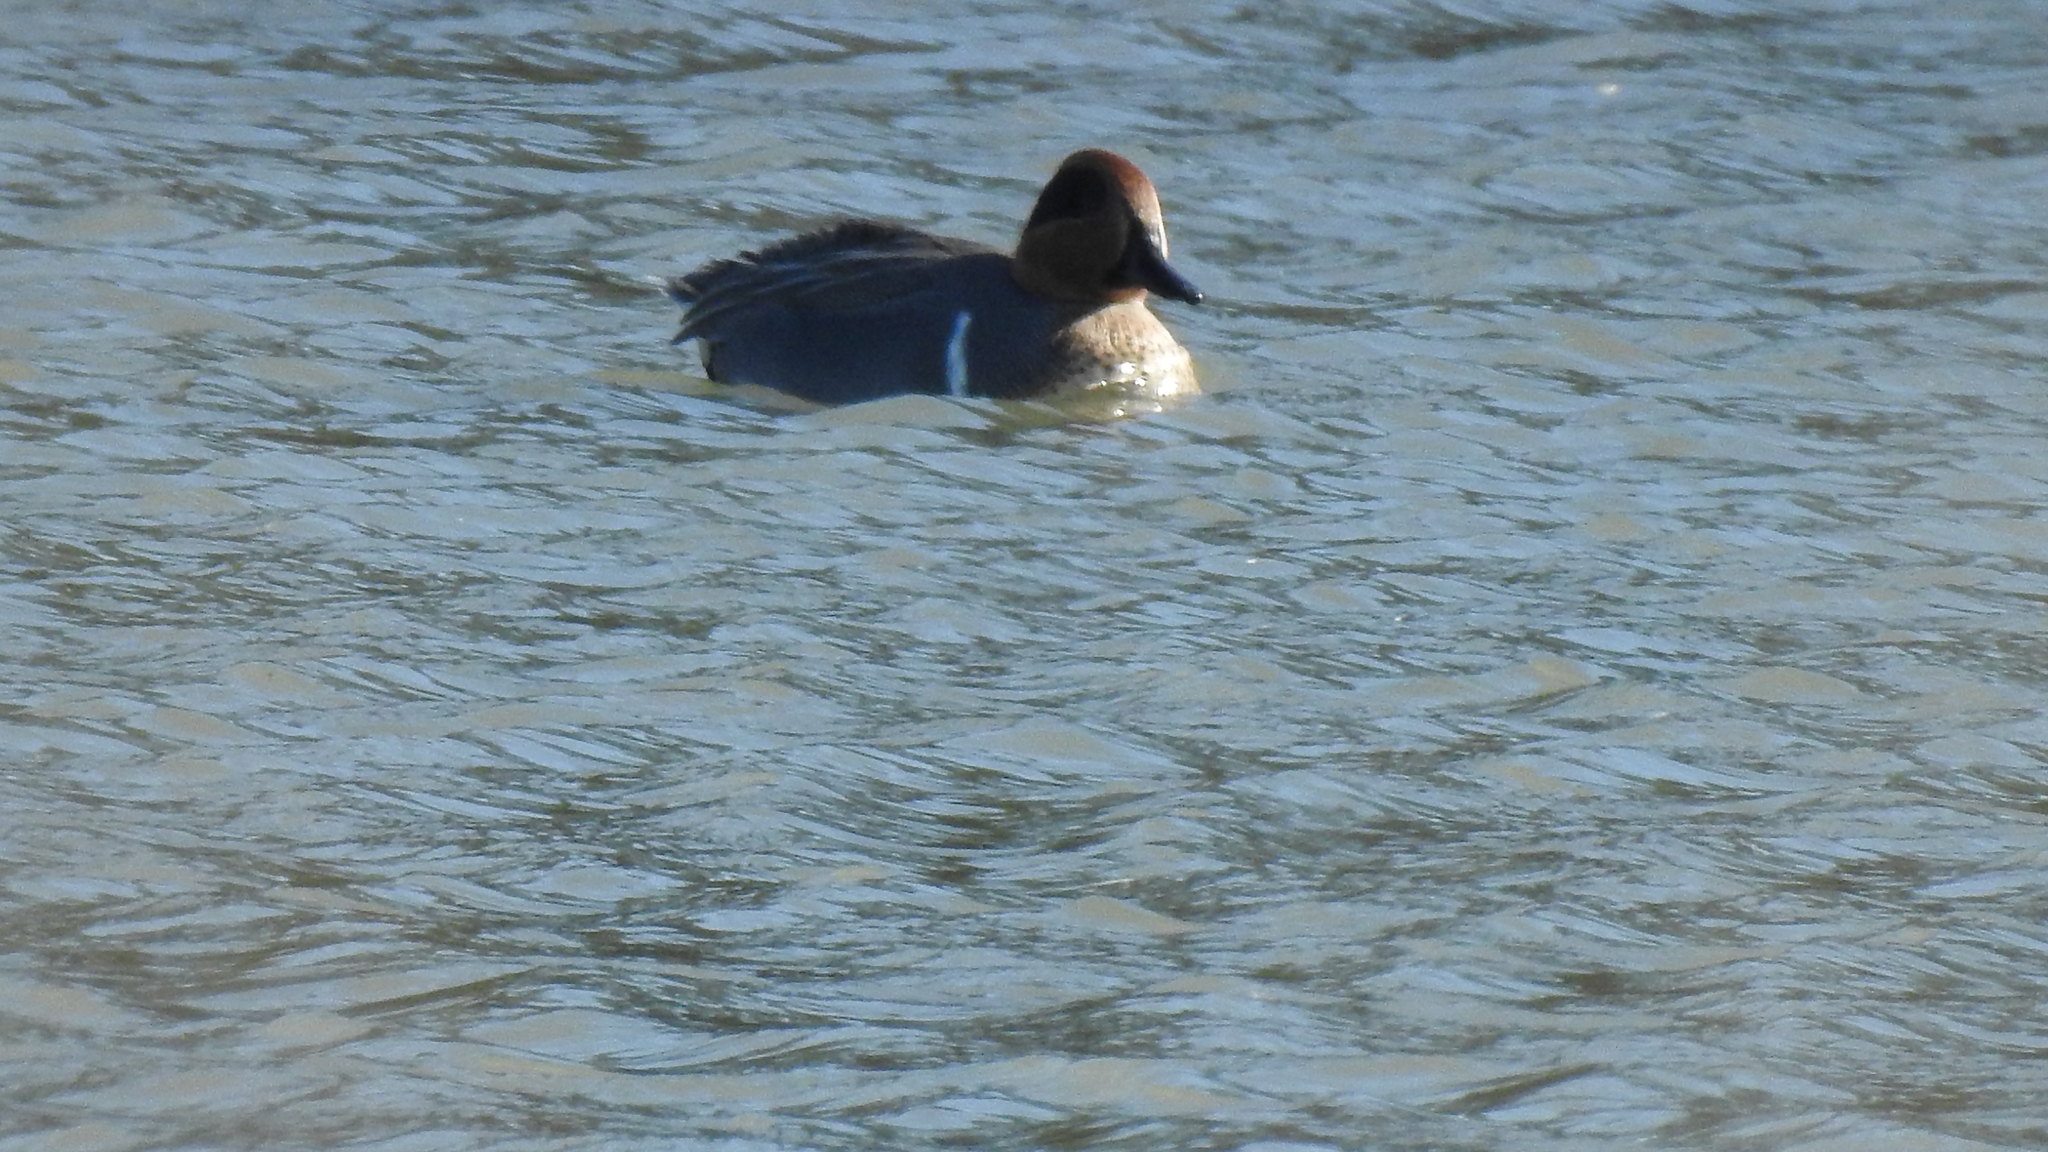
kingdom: Animalia
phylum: Chordata
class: Aves
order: Anseriformes
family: Anatidae
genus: Anas
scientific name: Anas crecca
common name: Eurasian teal
